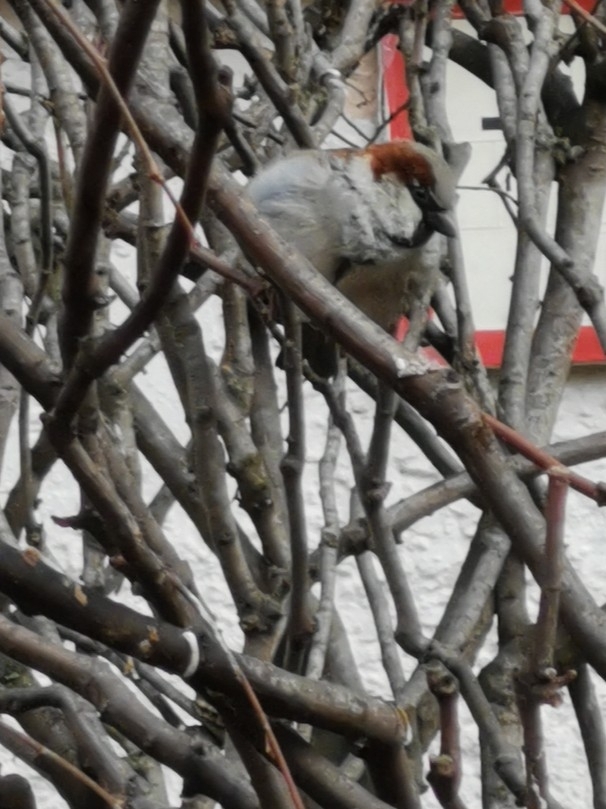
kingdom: Animalia
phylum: Chordata
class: Aves
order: Passeriformes
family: Passeridae
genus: Passer
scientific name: Passer domesticus
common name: House sparrow
